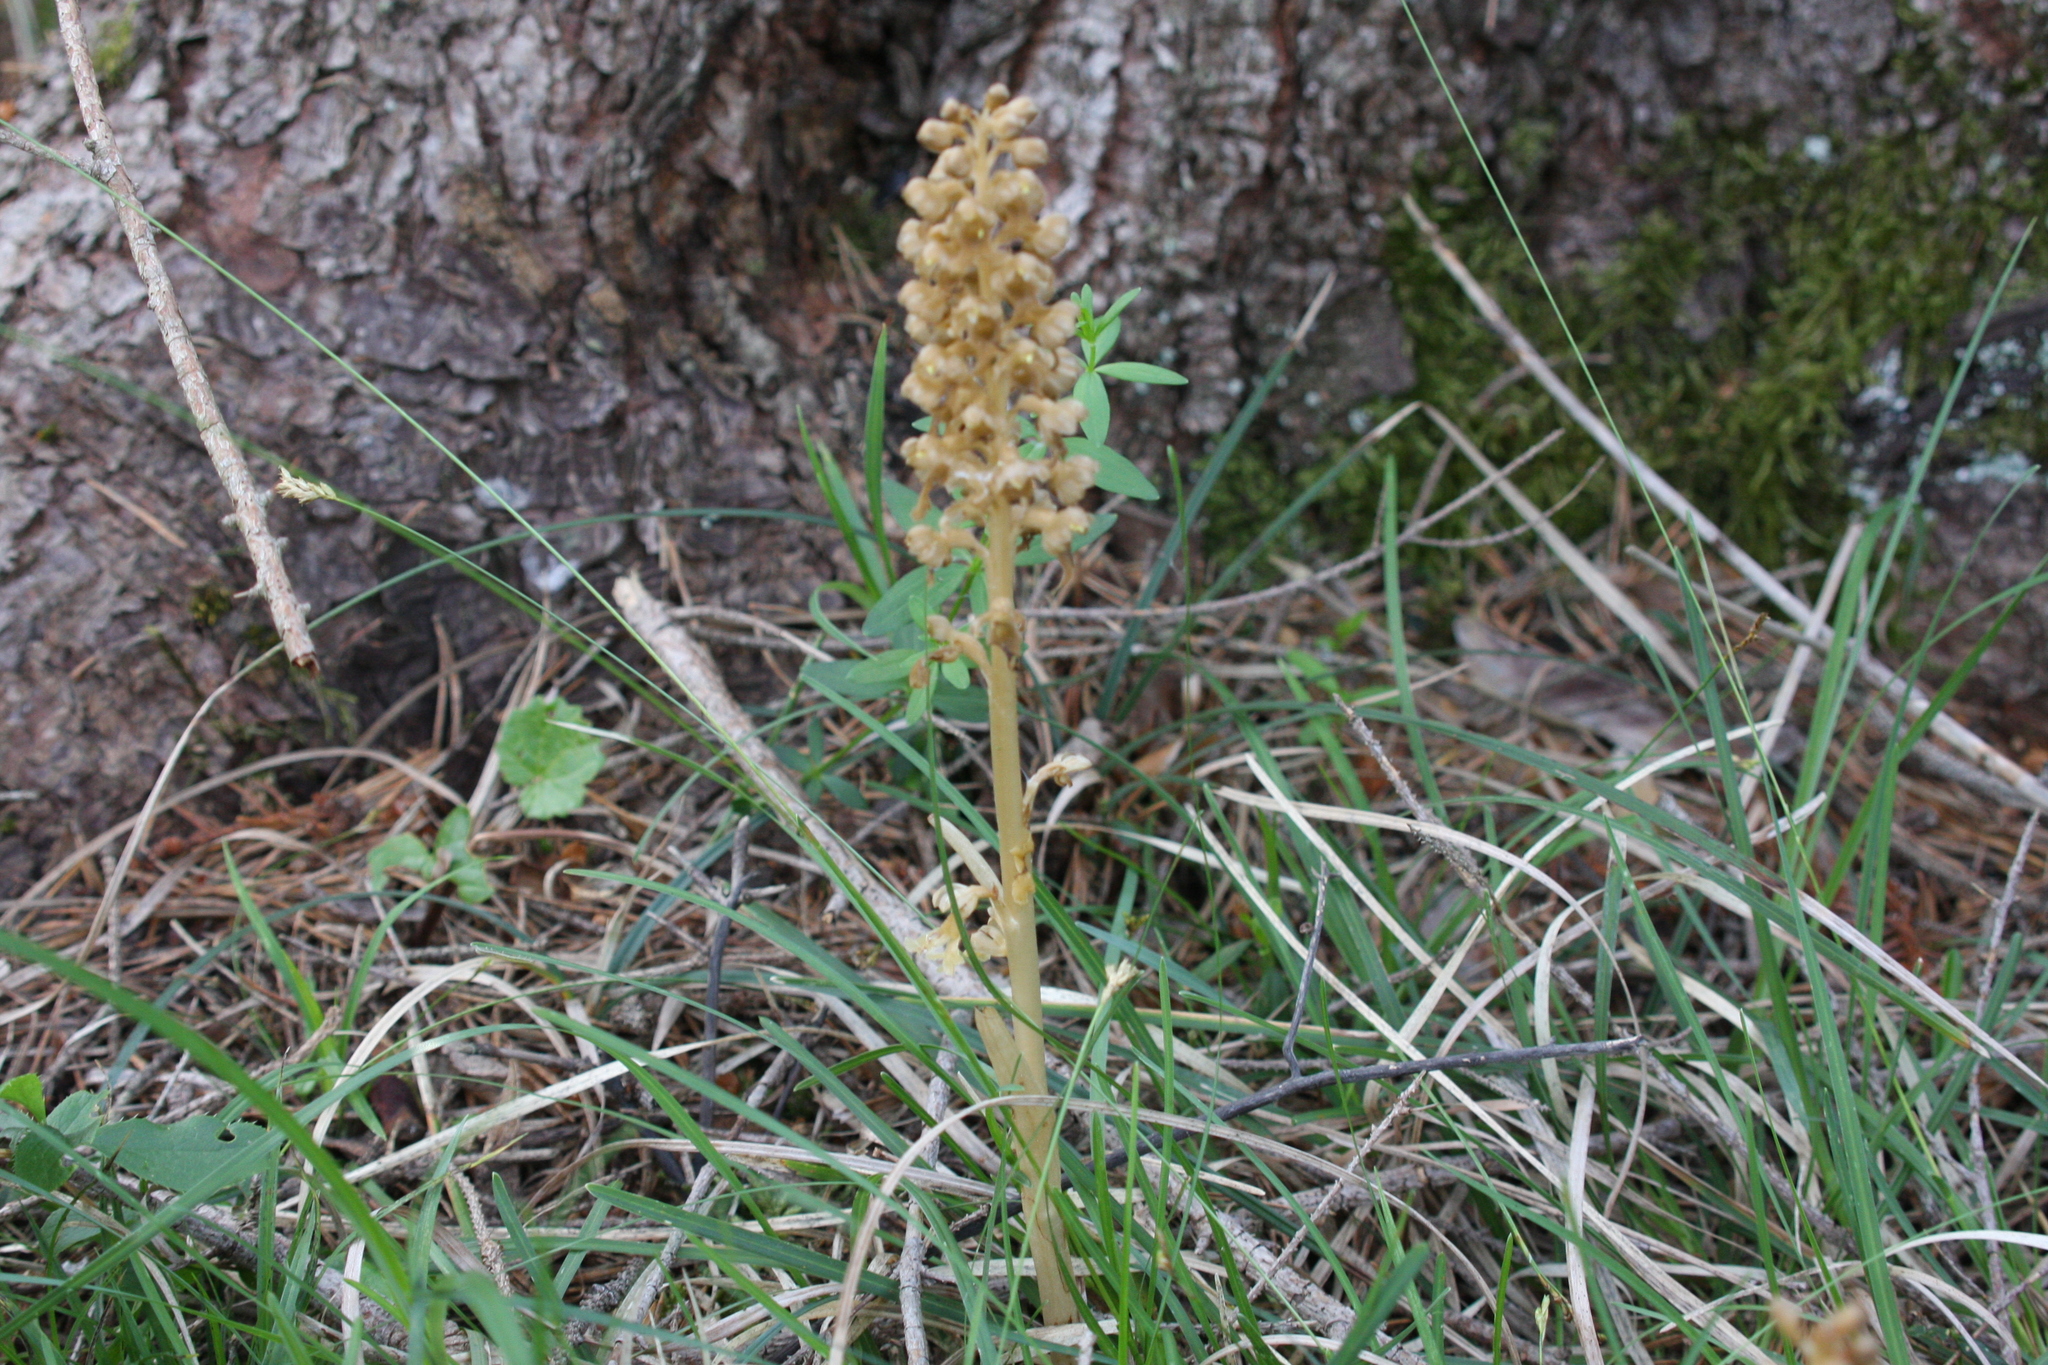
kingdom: Plantae
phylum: Tracheophyta
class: Liliopsida
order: Asparagales
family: Orchidaceae
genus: Neottia
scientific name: Neottia nidus-avis
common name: Bird's-nest orchid
